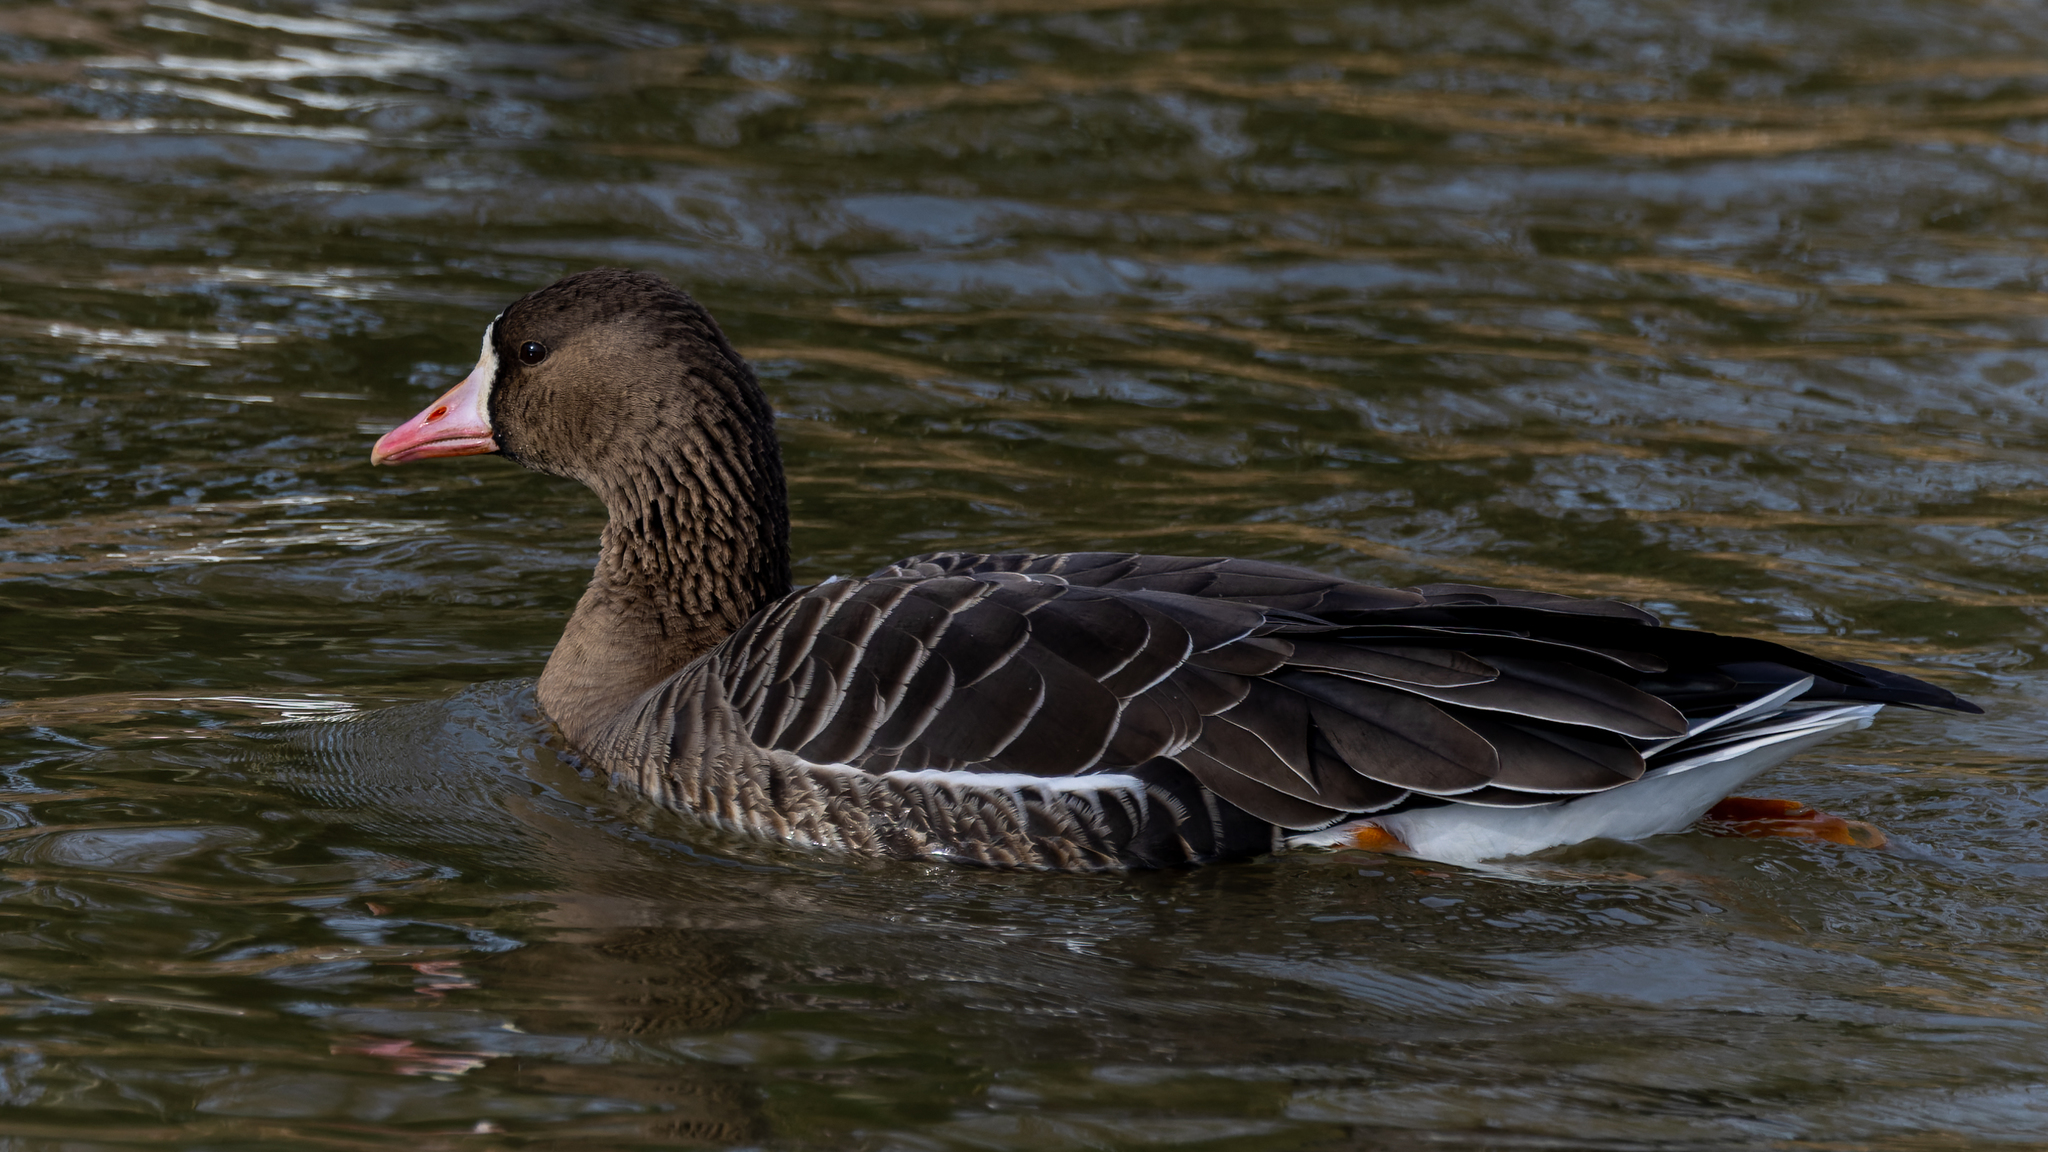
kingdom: Animalia
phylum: Chordata
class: Aves
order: Anseriformes
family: Anatidae
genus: Anser
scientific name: Anser albifrons
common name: Greater white-fronted goose
